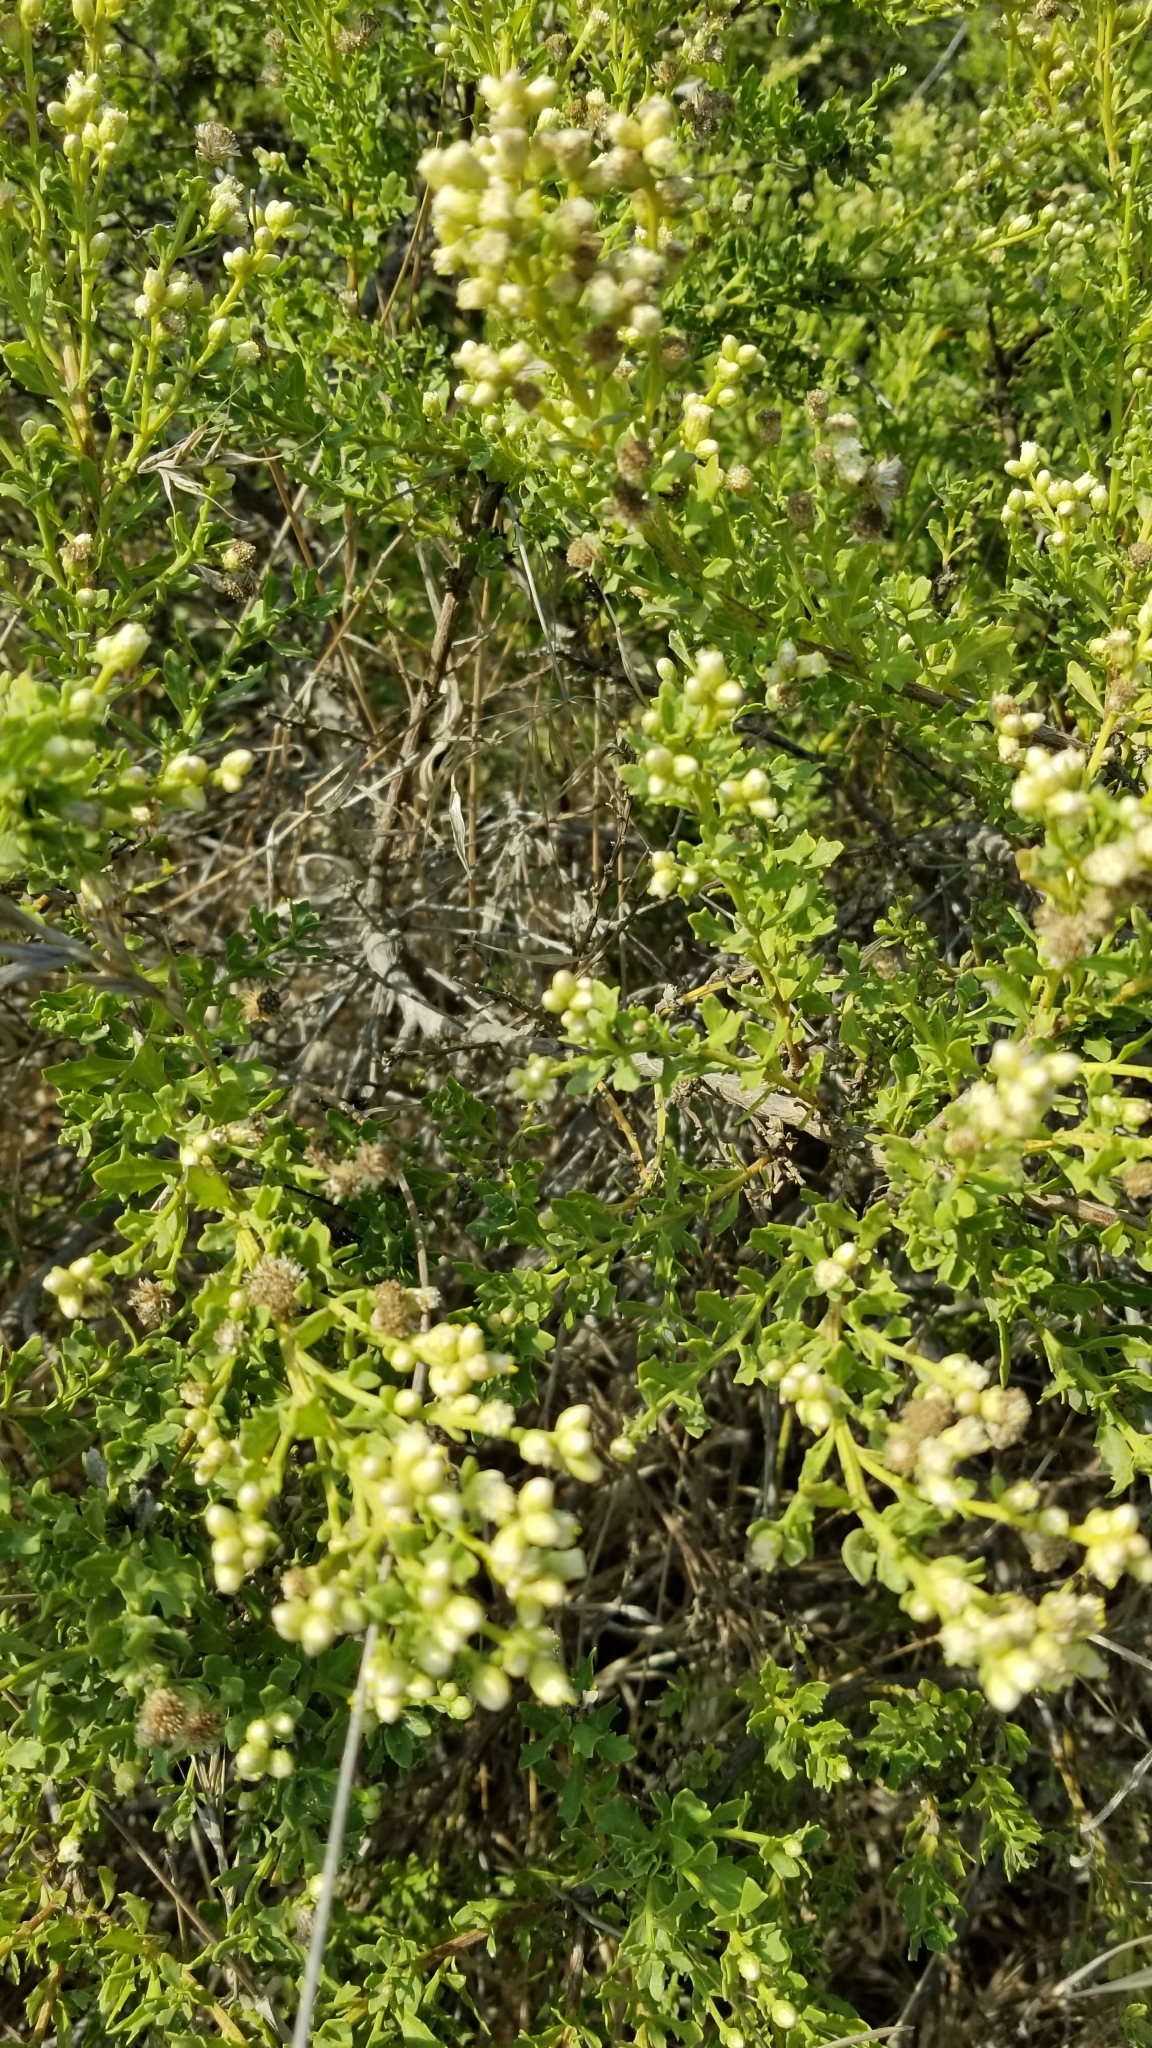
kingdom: Plantae
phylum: Tracheophyta
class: Magnoliopsida
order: Asterales
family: Asteraceae
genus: Baccharis
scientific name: Baccharis pilularis
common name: Coyotebrush
